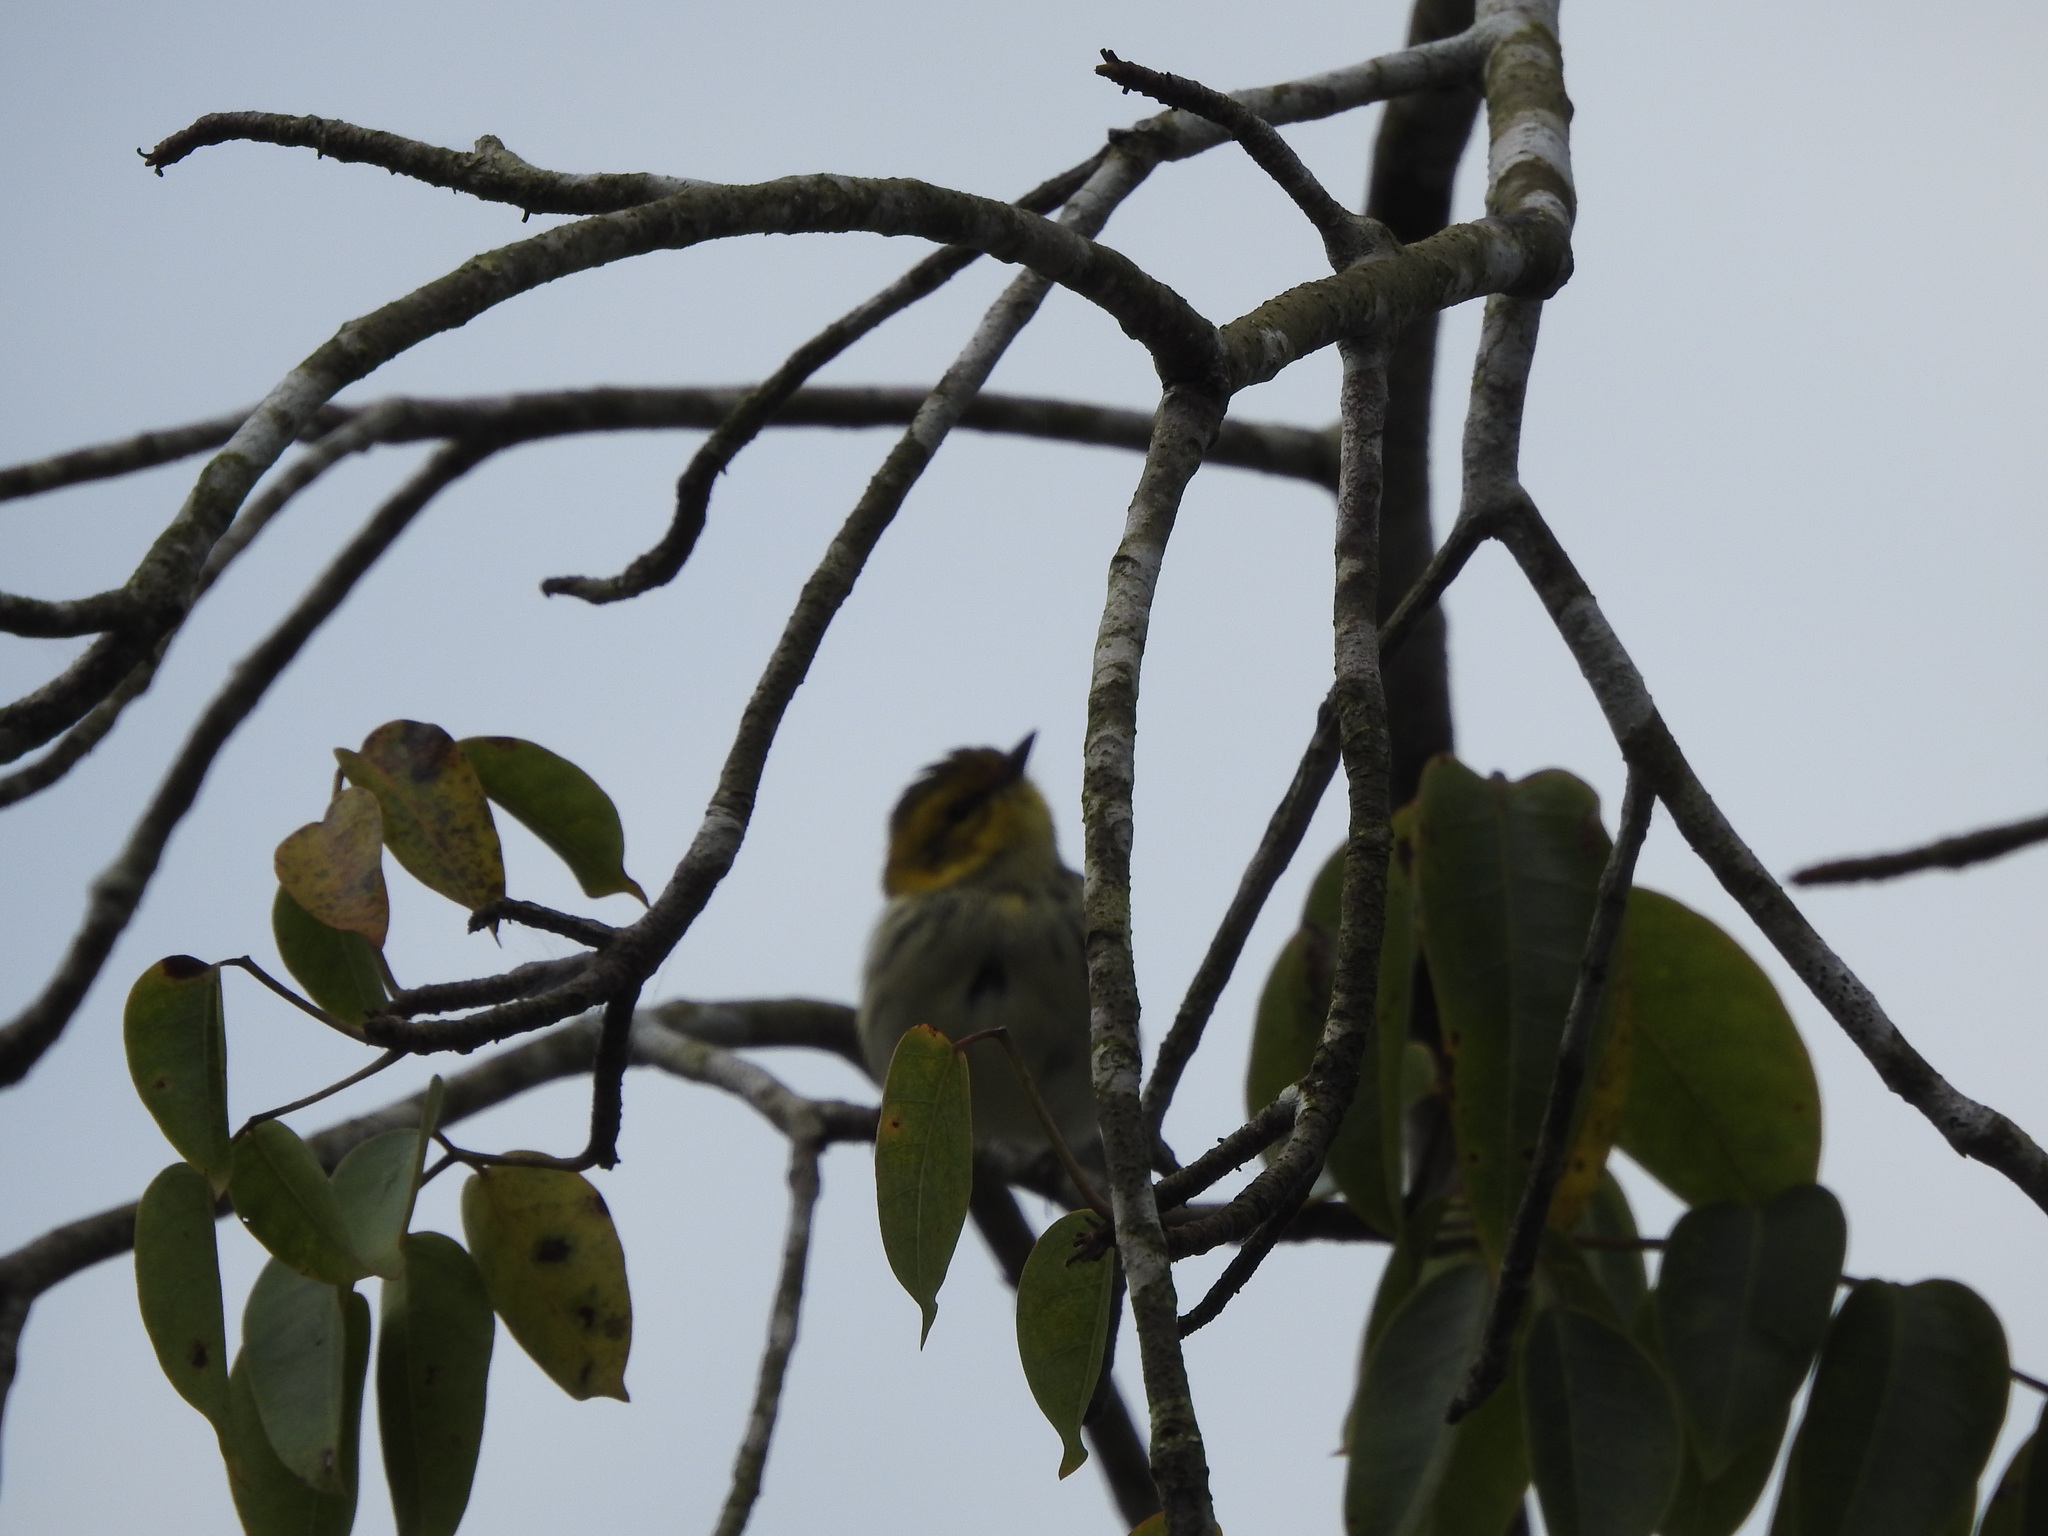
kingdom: Animalia
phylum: Chordata
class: Aves
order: Passeriformes
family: Parulidae
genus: Setophaga
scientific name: Setophaga virens
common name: Black-throated green warbler
